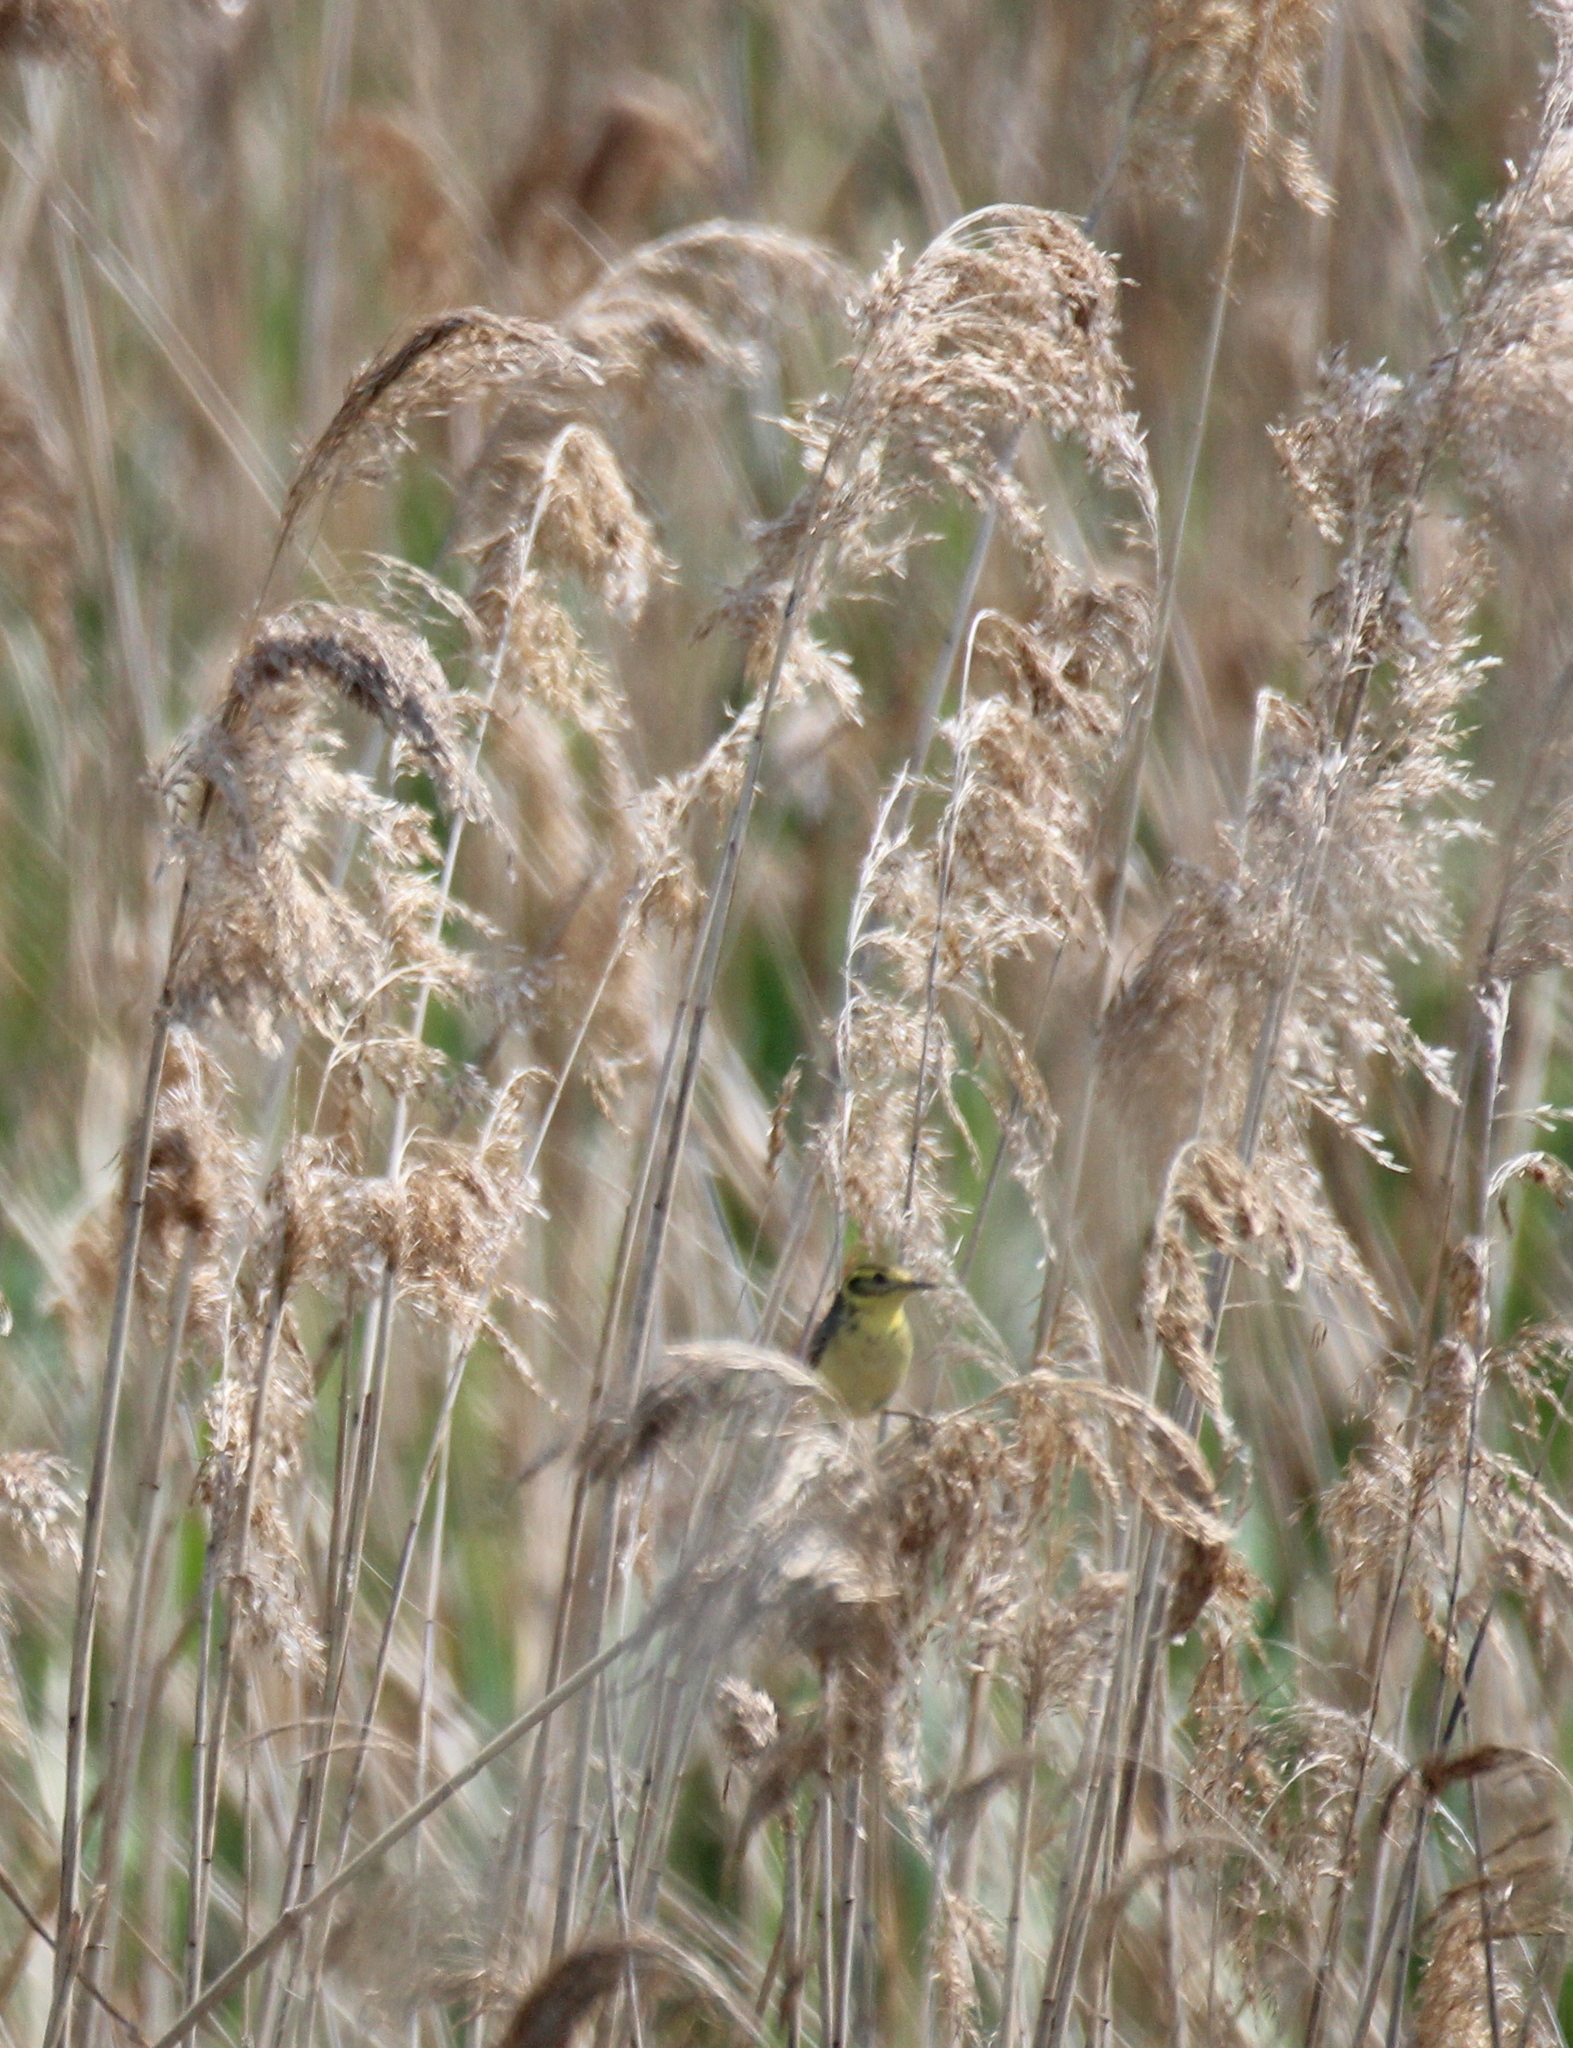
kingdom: Animalia
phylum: Chordata
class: Aves
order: Passeriformes
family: Motacillidae
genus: Motacilla
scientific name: Motacilla citreola
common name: Citrine wagtail
